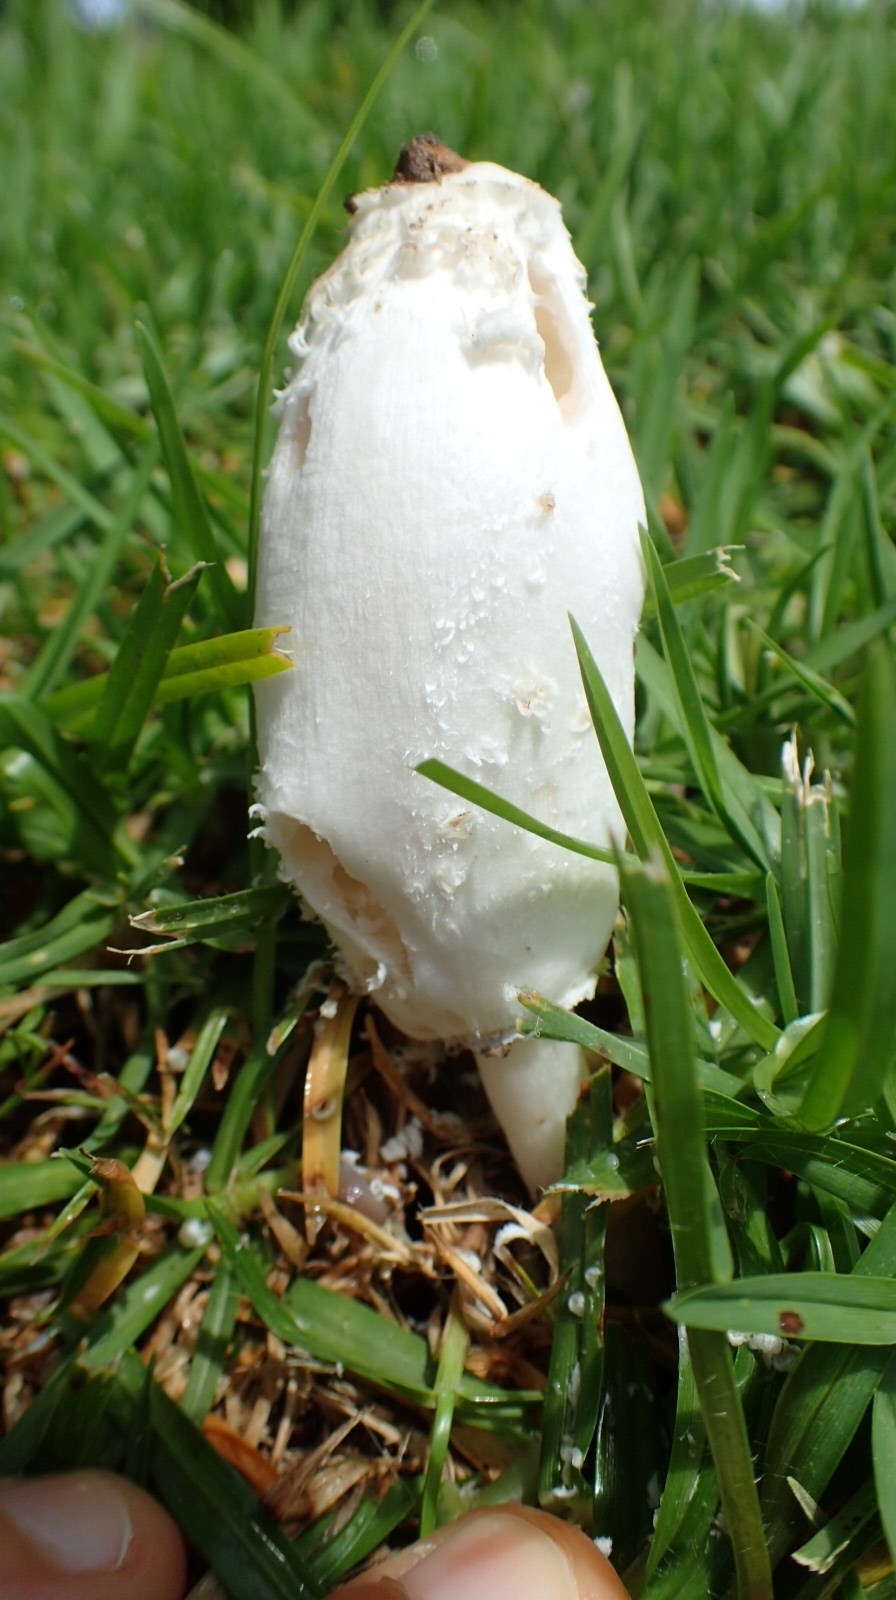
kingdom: Fungi
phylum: Basidiomycota
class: Agaricomycetes
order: Agaricales
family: Agaricaceae
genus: Coprinus
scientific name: Coprinus comatus
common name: Lawyer's wig
